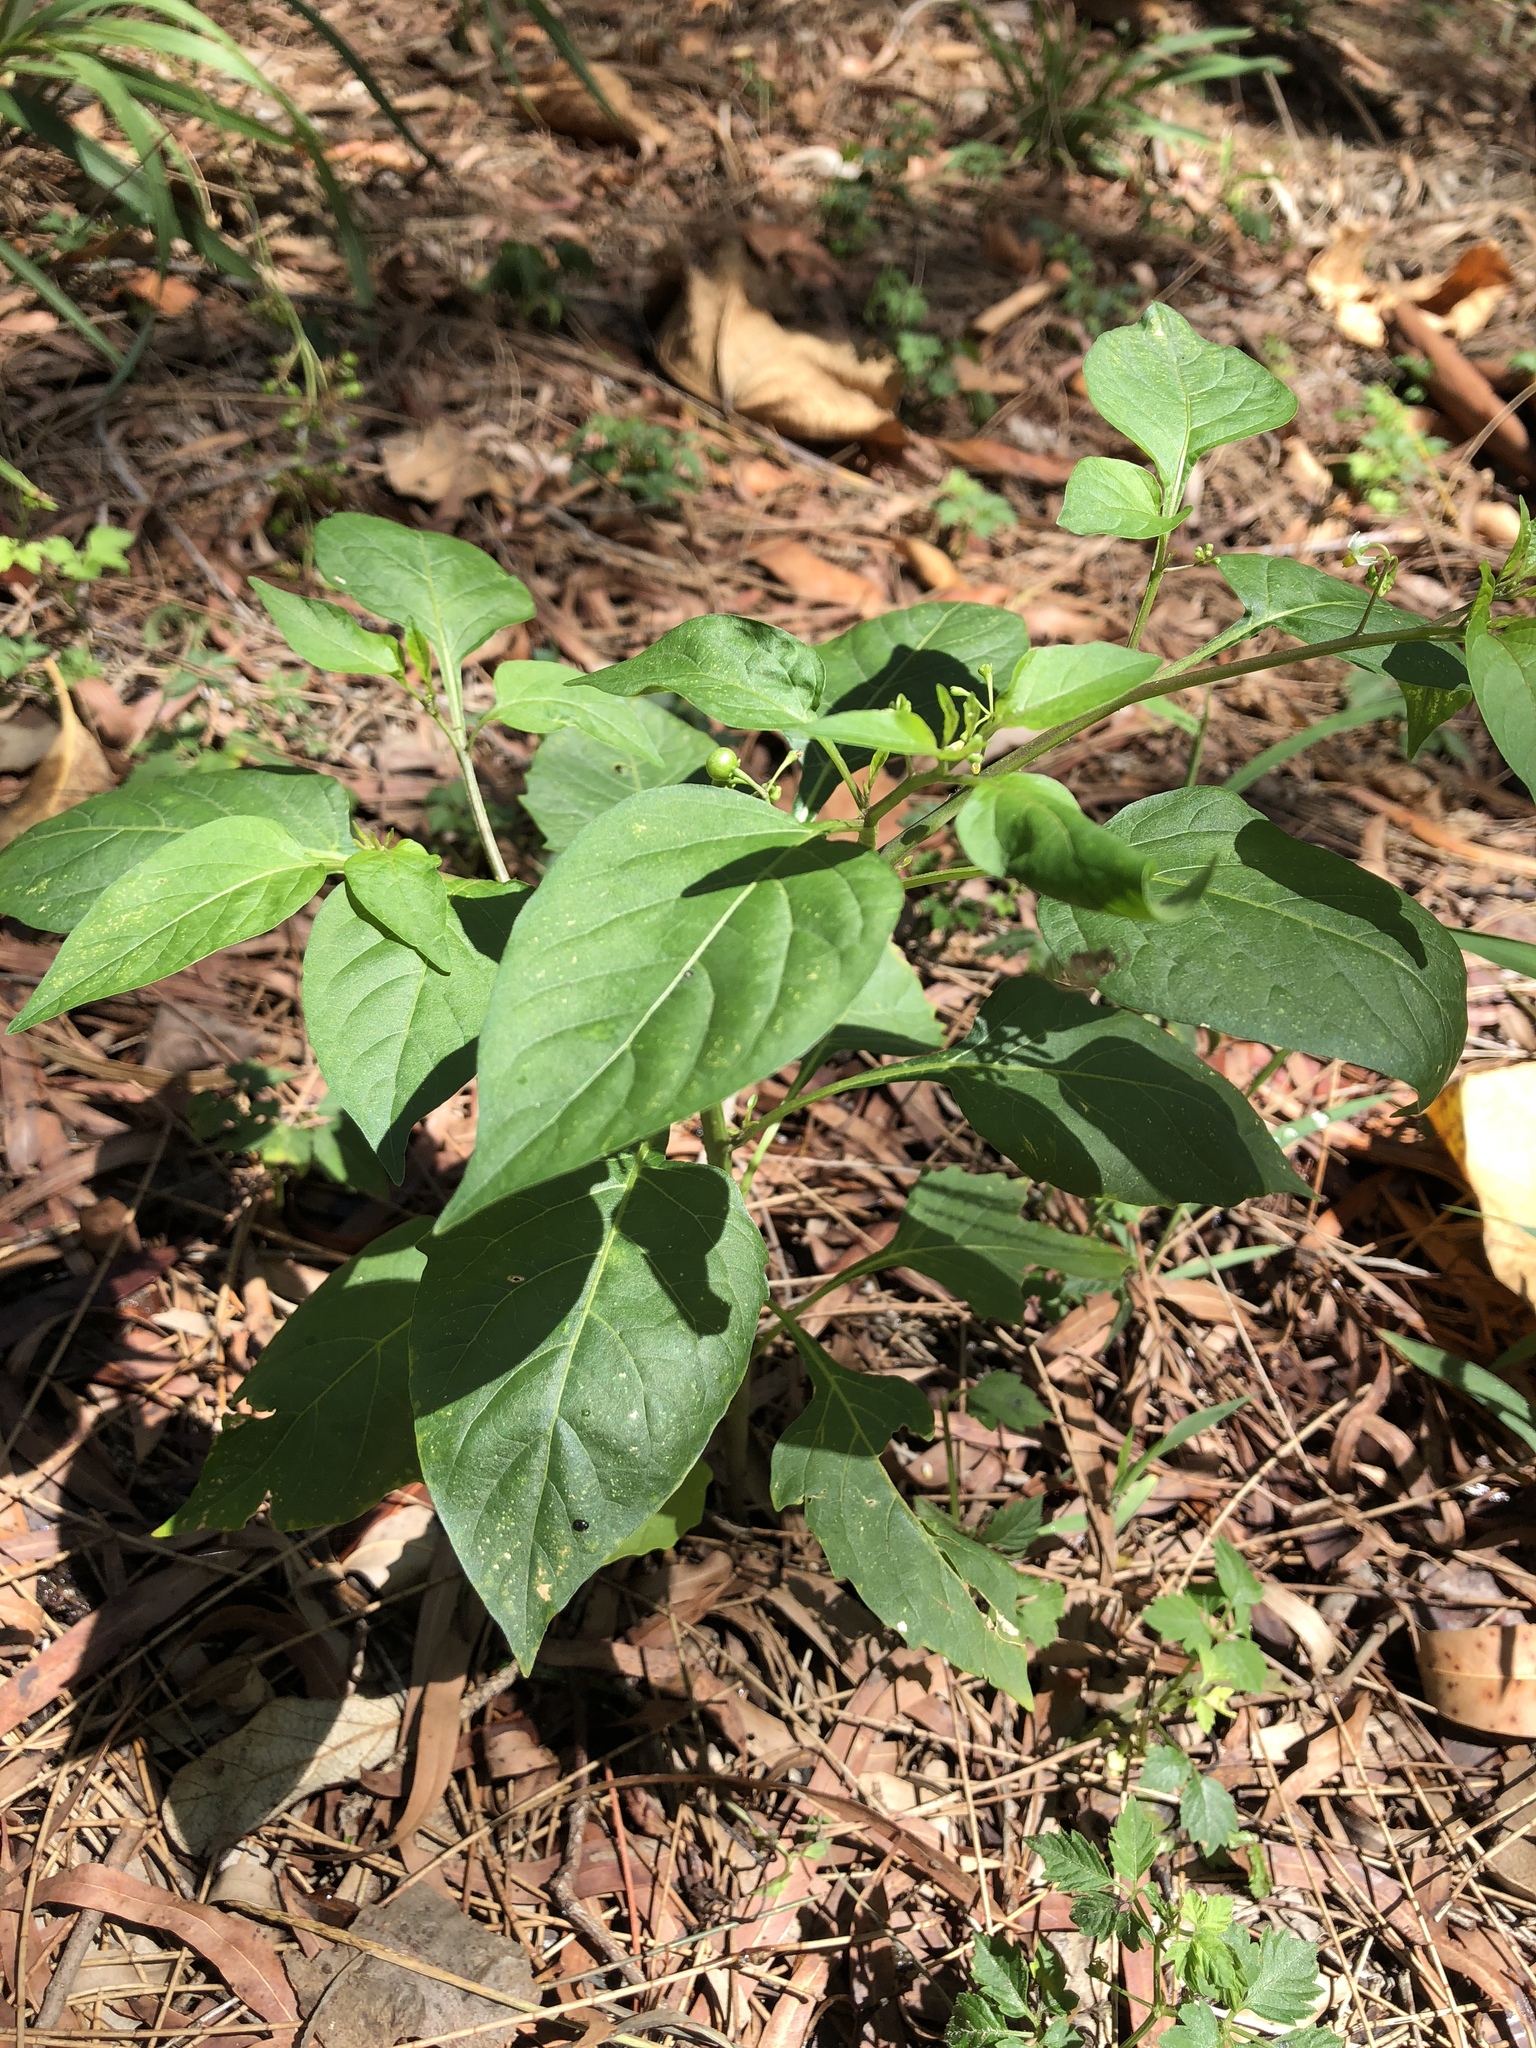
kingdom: Plantae
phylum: Tracheophyta
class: Magnoliopsida
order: Solanales
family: Solanaceae
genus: Solanum
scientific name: Solanum americanum
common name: American black nightshade
